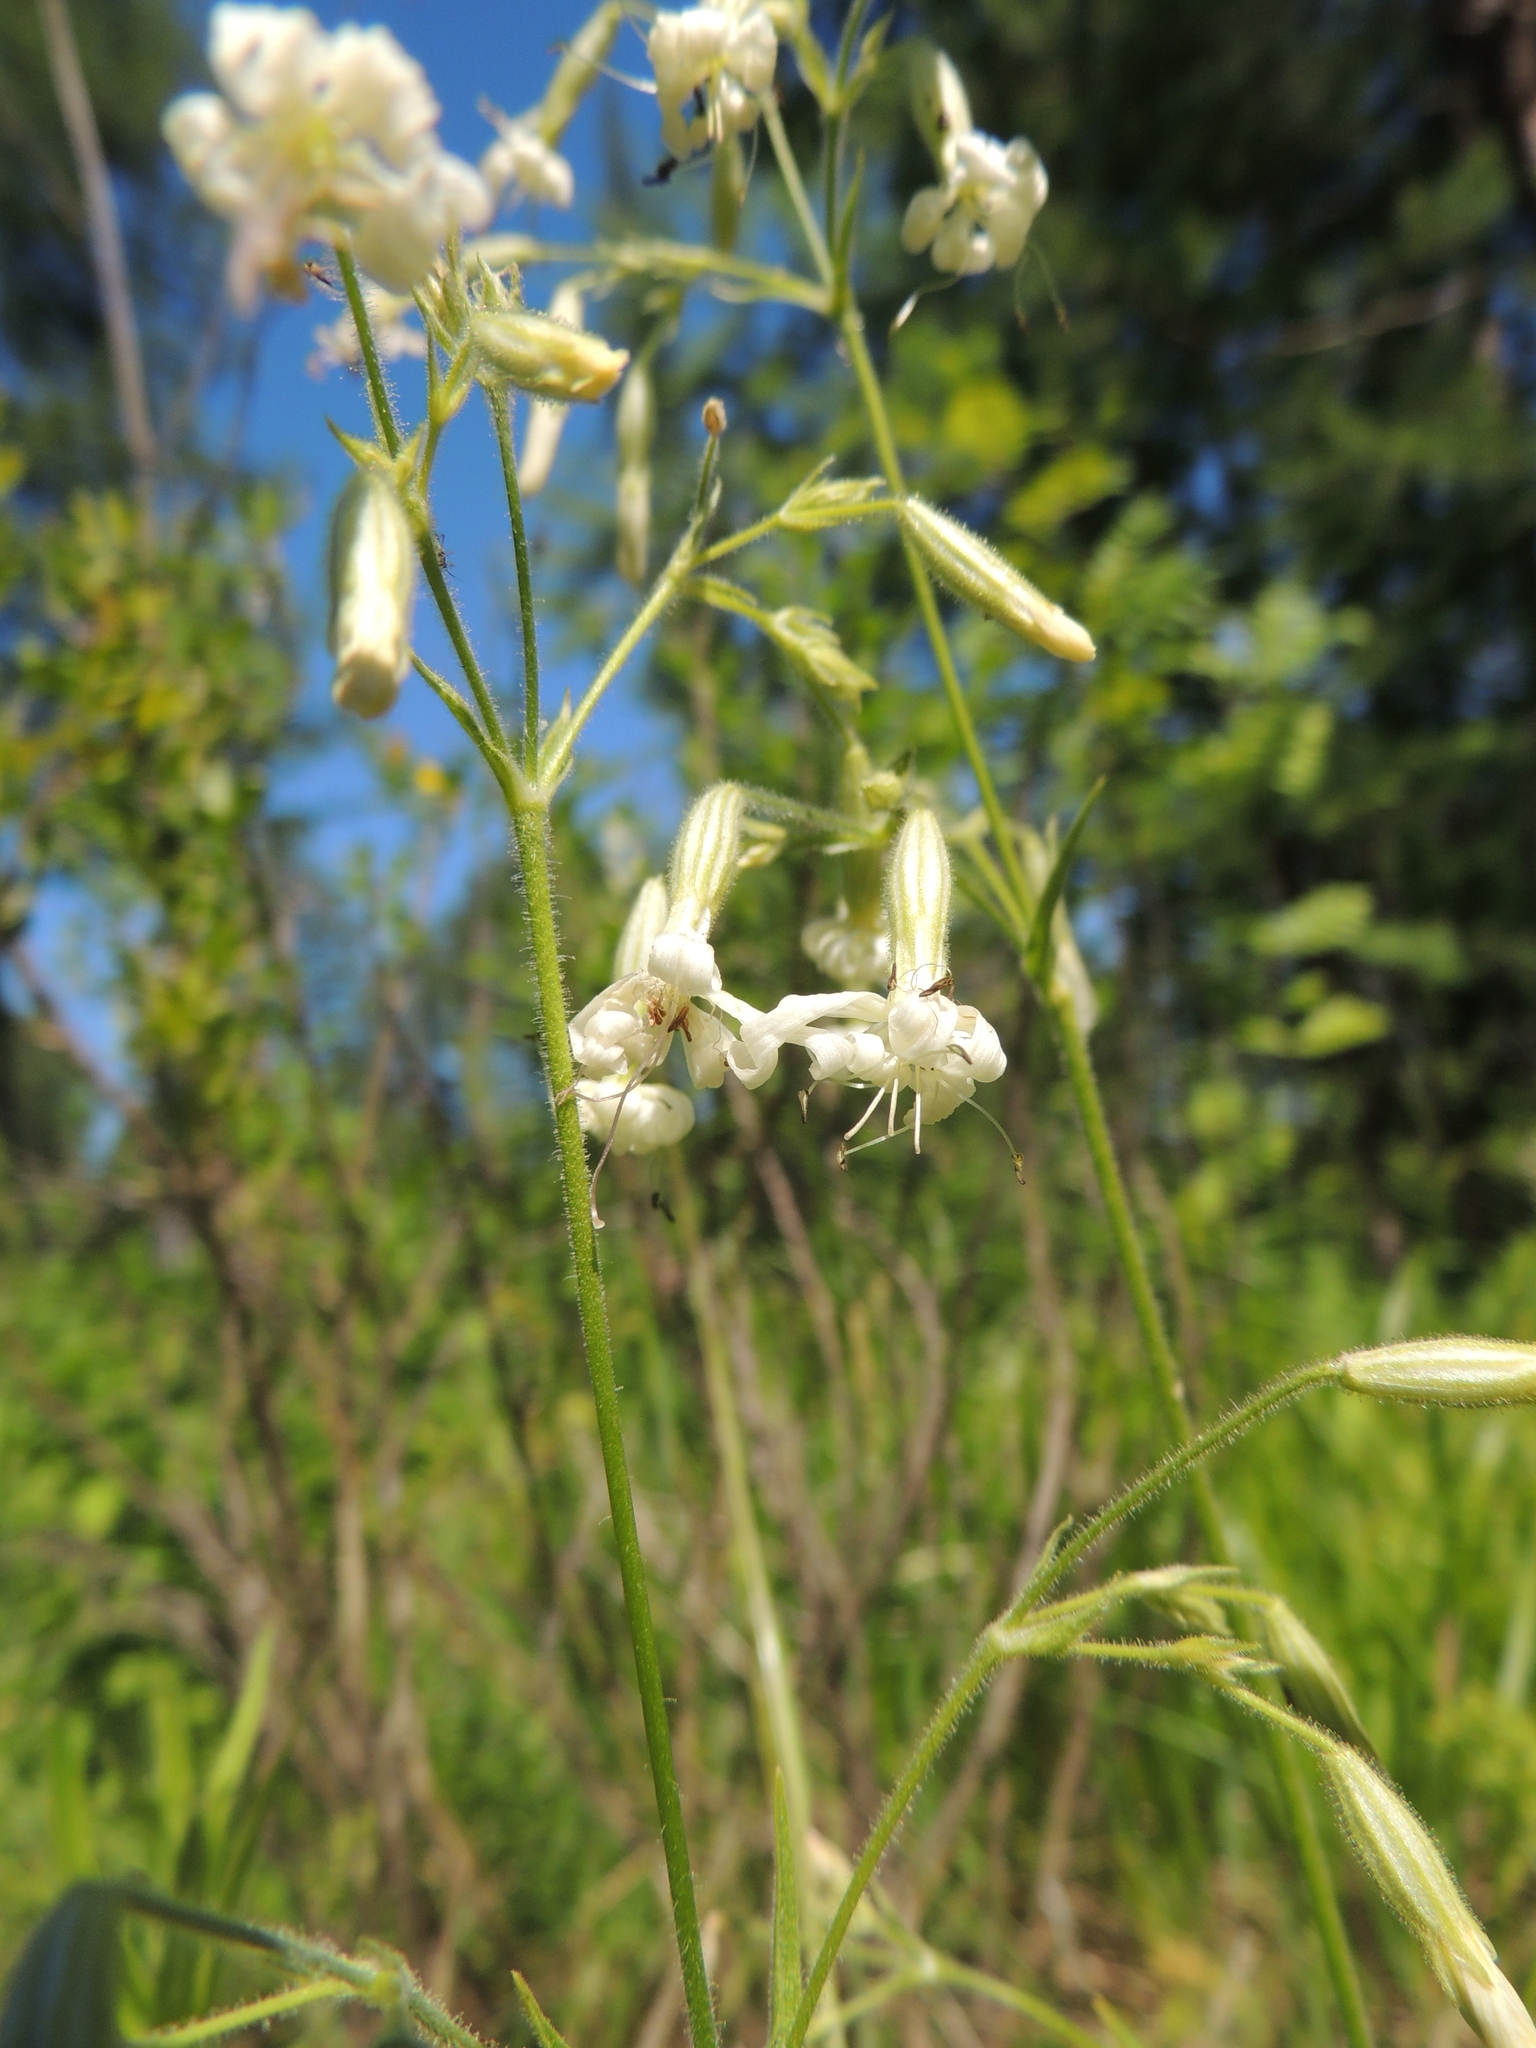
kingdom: Plantae
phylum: Tracheophyta
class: Magnoliopsida
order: Caryophyllales
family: Caryophyllaceae
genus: Silene
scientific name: Silene nutans
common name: Nottingham catchfly
